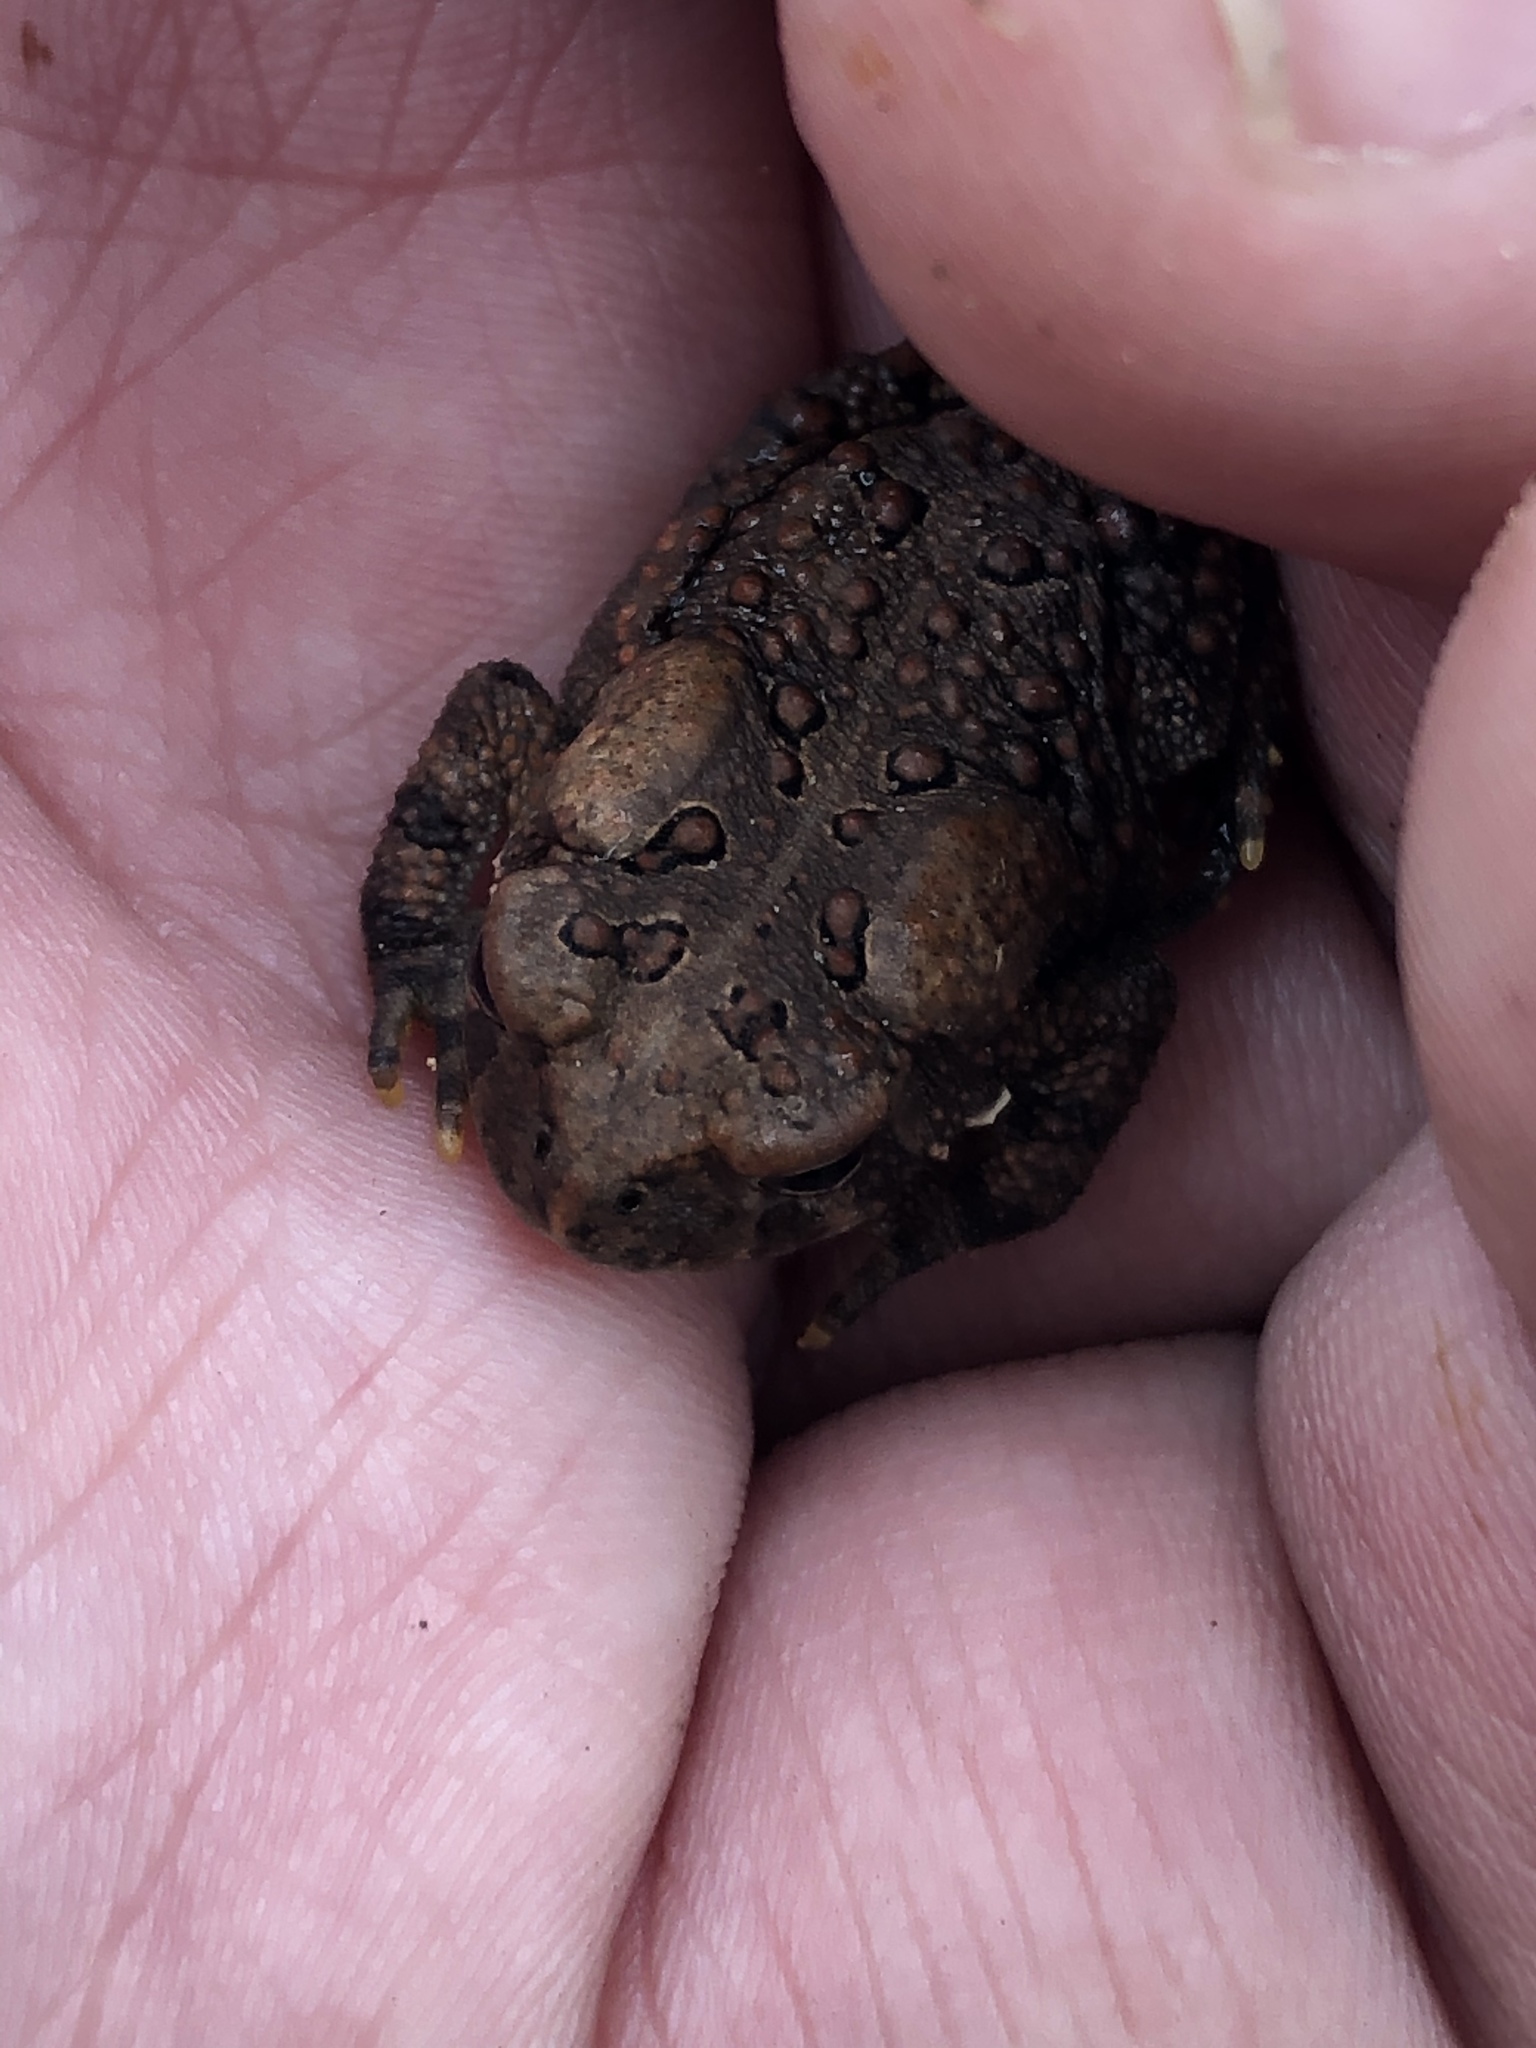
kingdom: Animalia
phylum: Chordata
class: Amphibia
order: Anura
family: Bufonidae
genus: Anaxyrus
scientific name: Anaxyrus americanus
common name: American toad
